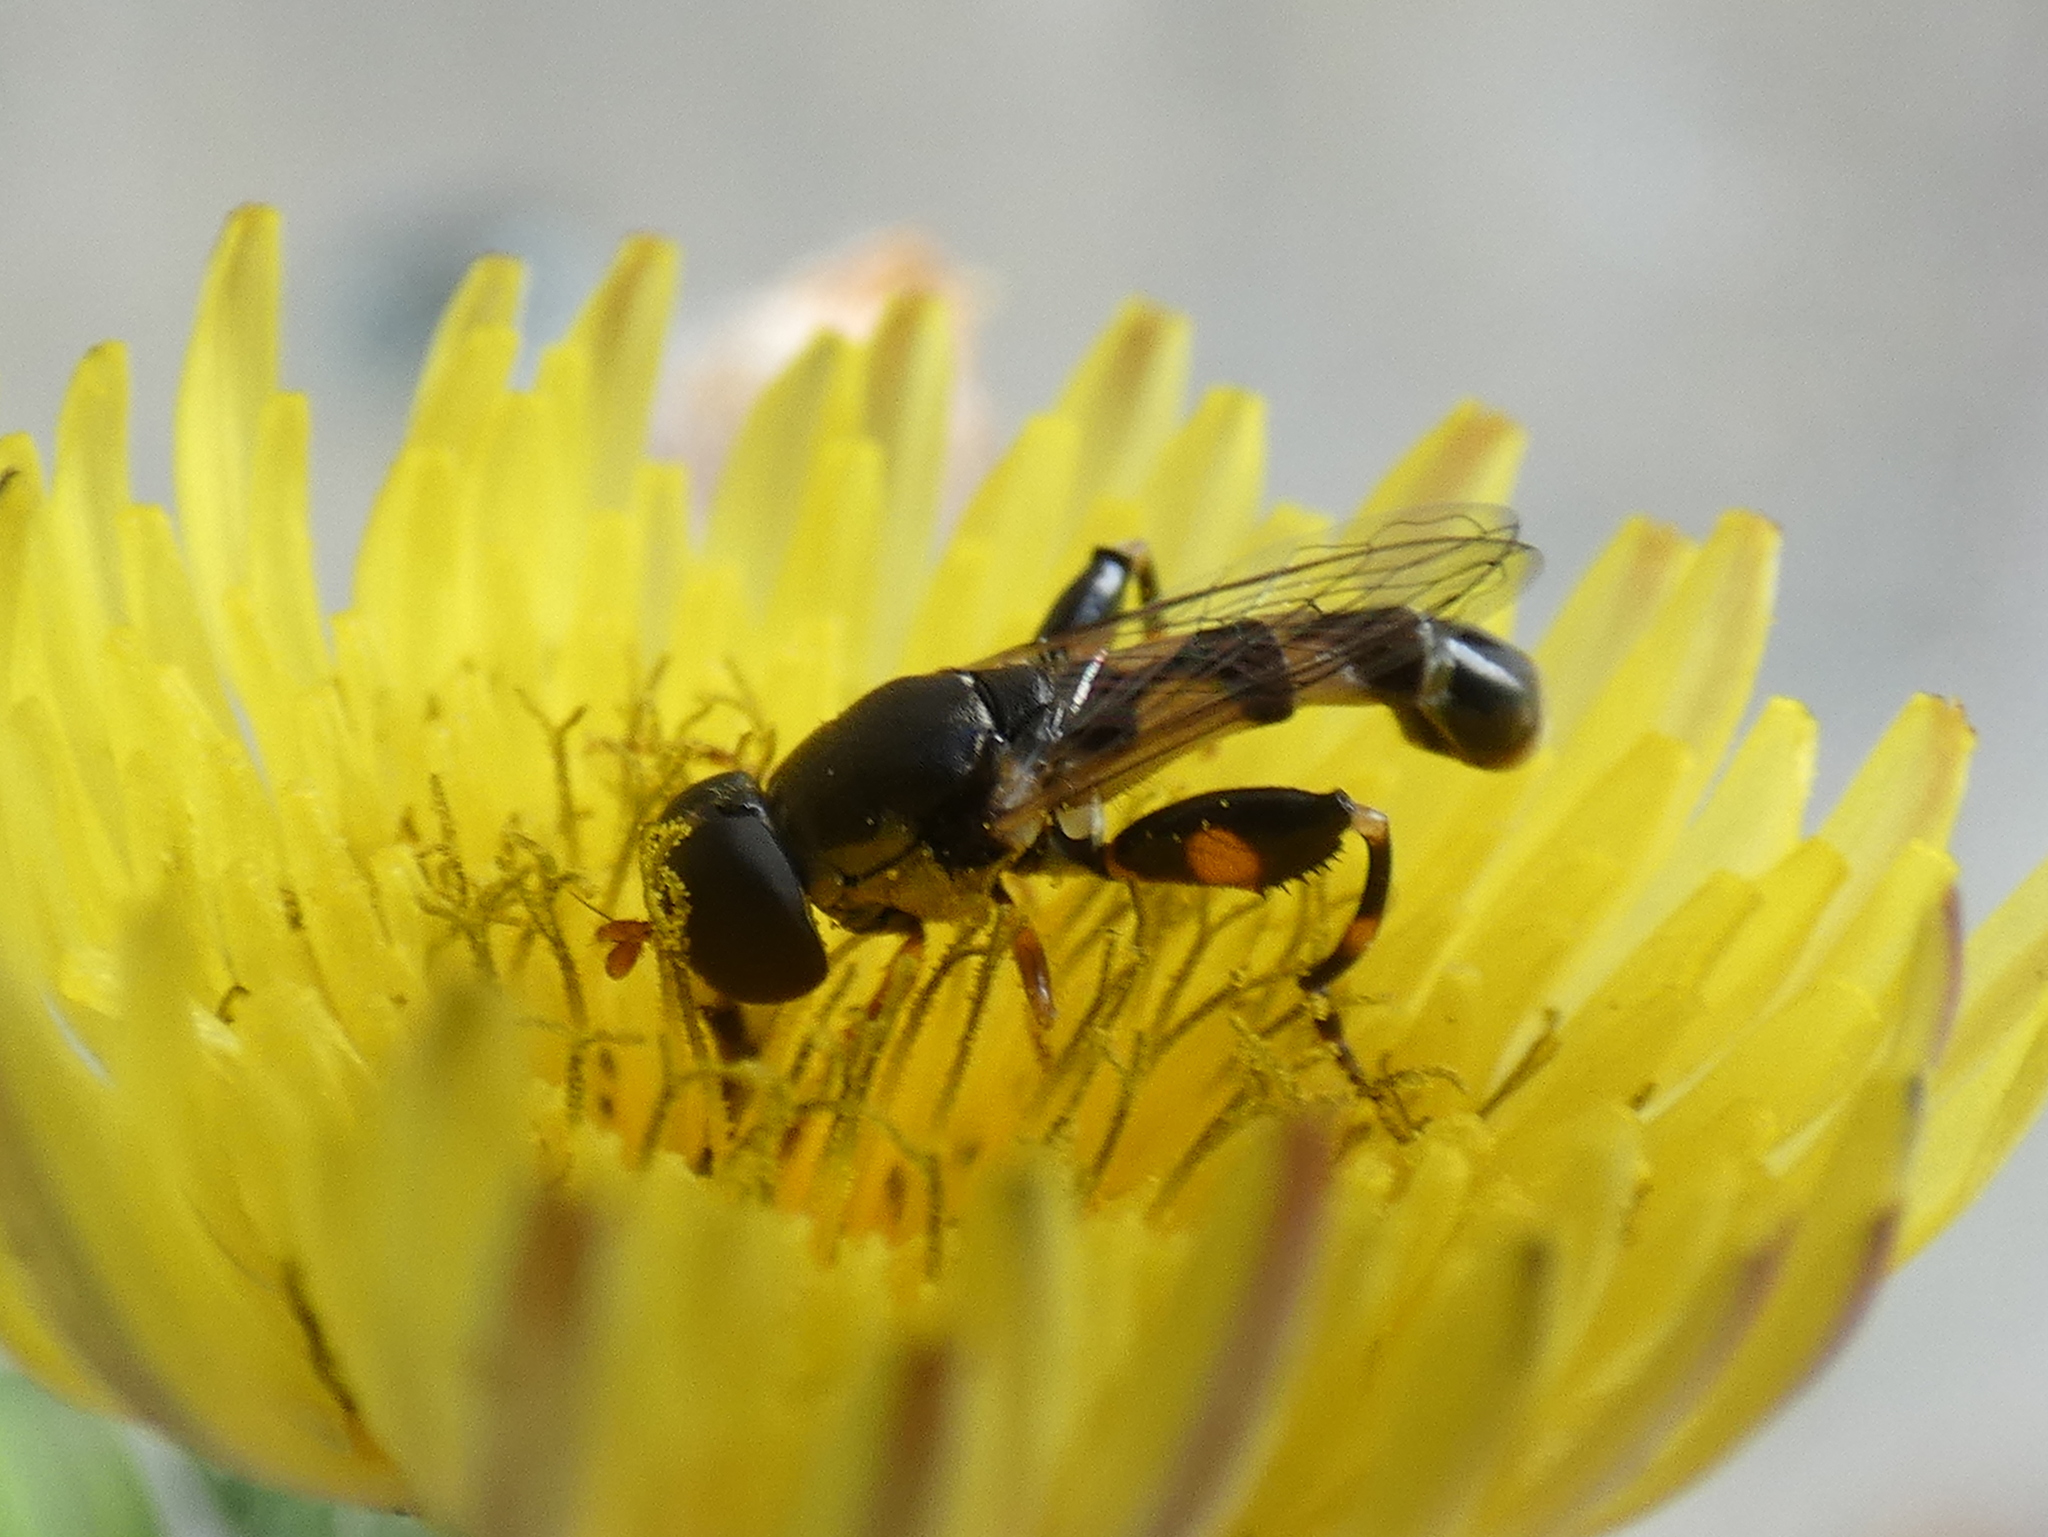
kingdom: Animalia
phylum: Arthropoda
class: Insecta
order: Diptera
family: Syrphidae
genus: Syritta
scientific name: Syritta pipiens
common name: Hover fly
